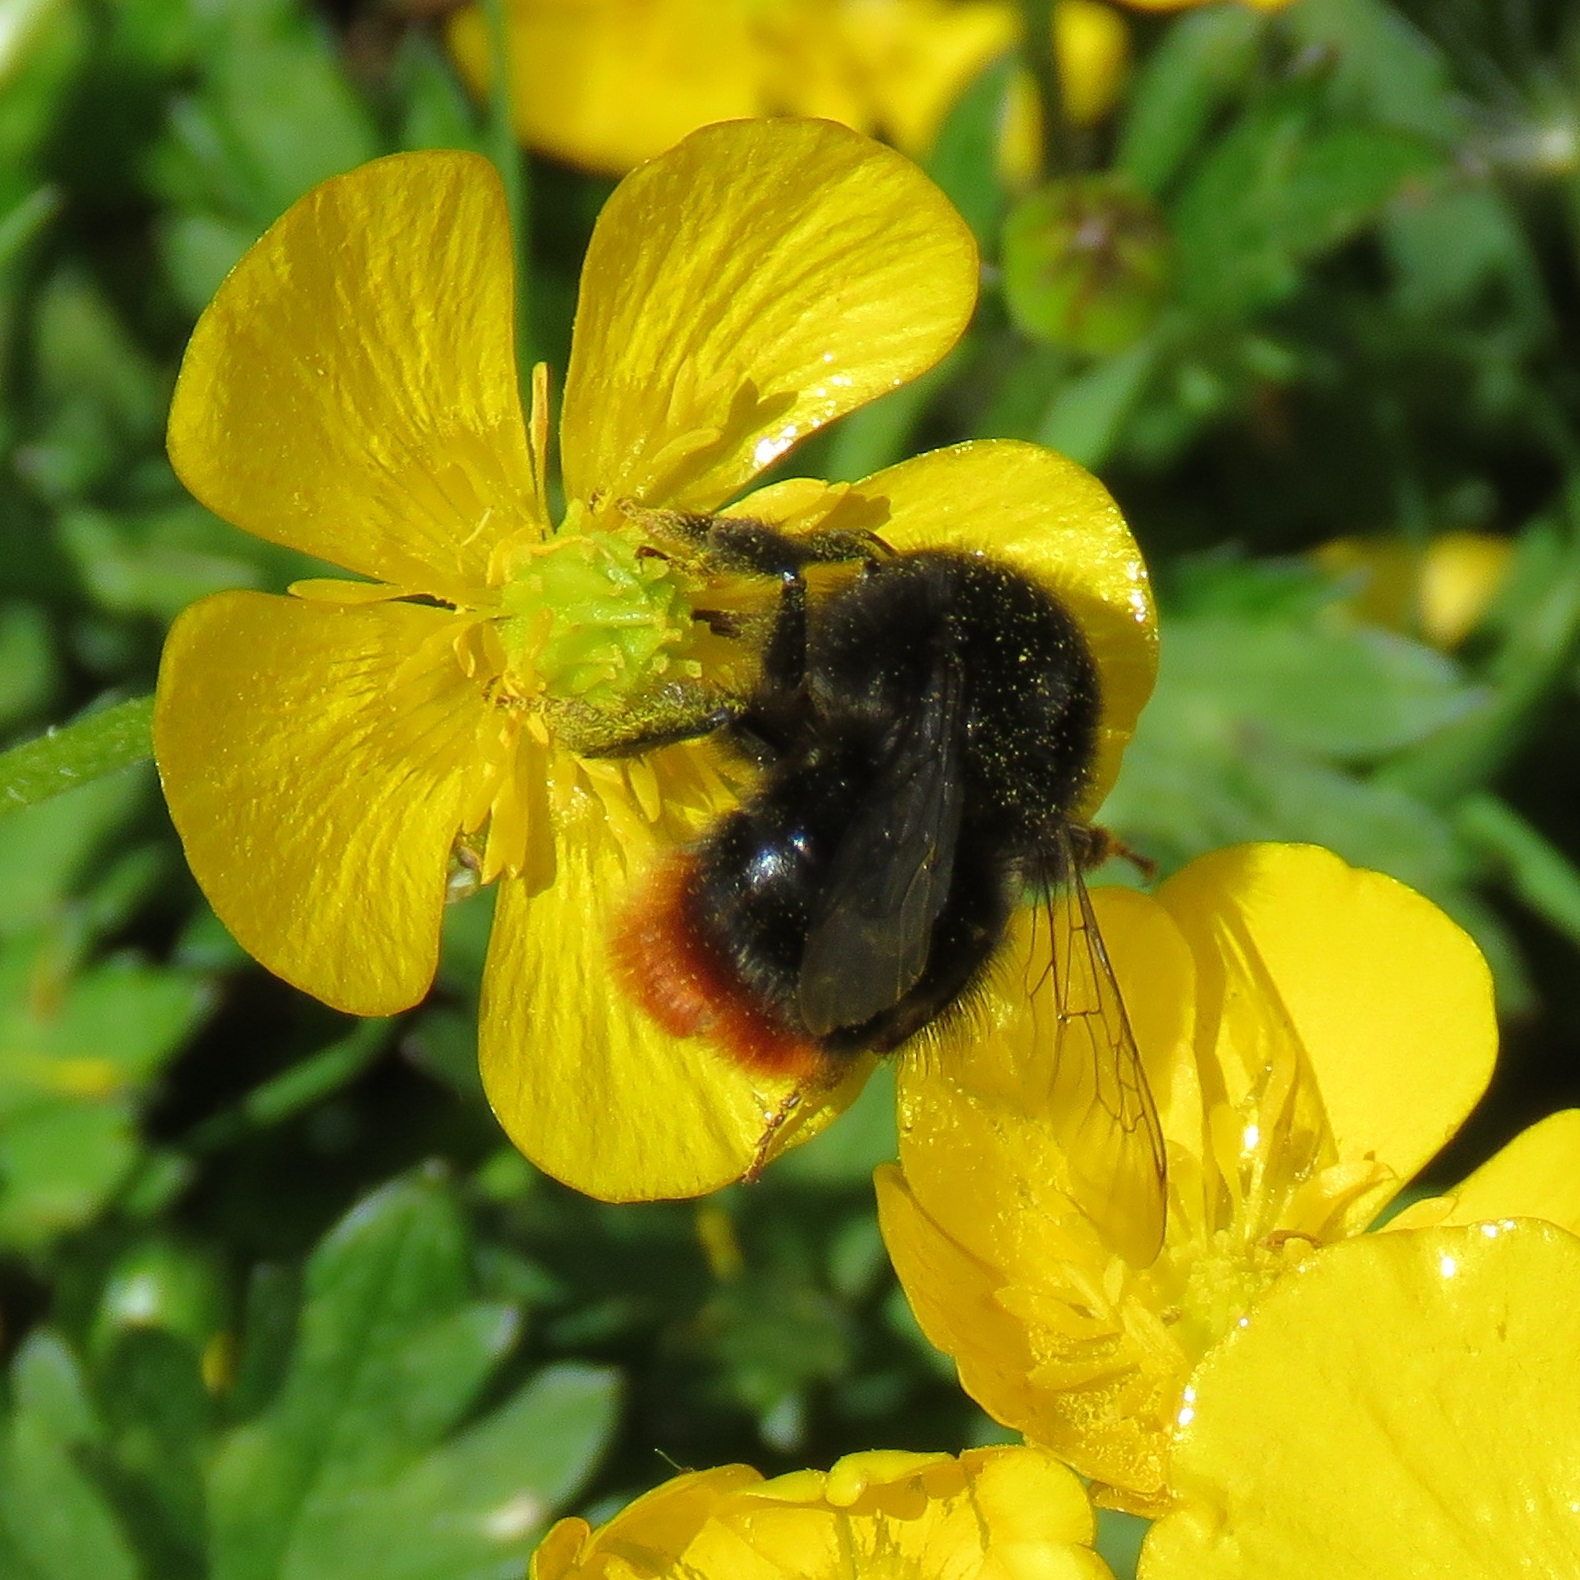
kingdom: Animalia
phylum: Arthropoda
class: Insecta
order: Hymenoptera
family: Apidae
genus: Bombus
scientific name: Bombus lapidarius
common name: Large red-tailed humble-bee
